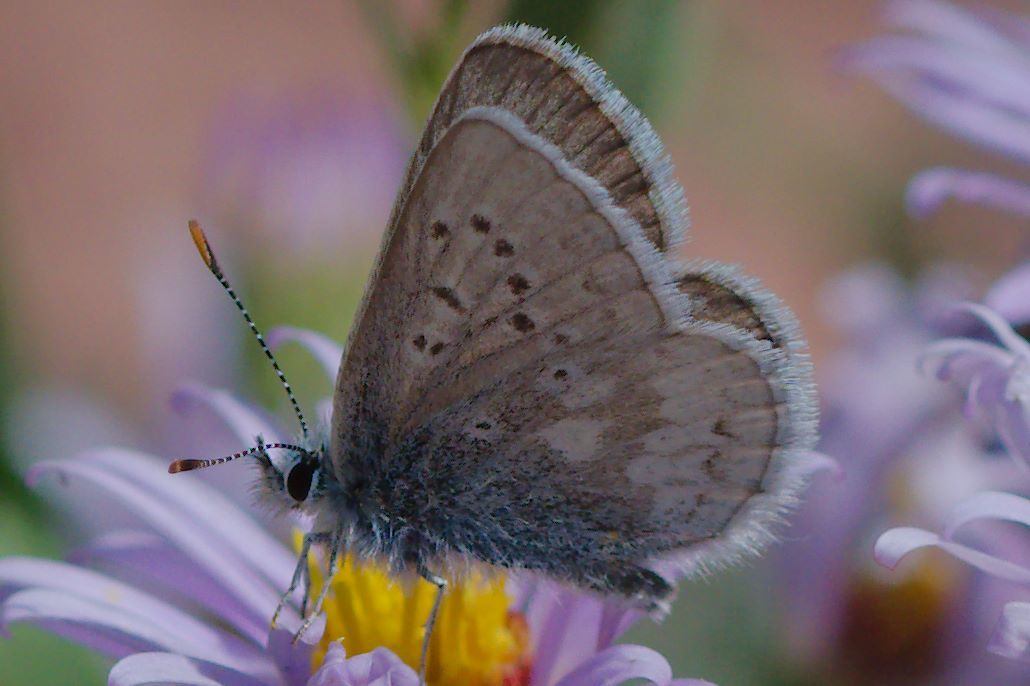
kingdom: Animalia
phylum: Arthropoda
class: Insecta
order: Lepidoptera
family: Lycaenidae
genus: Agriades
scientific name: Agriades glandon
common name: Glandon blue
